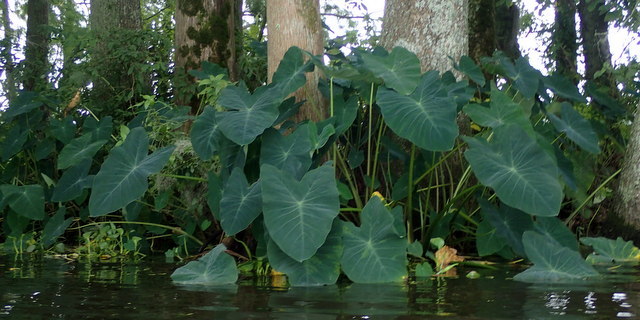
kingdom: Plantae
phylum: Tracheophyta
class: Liliopsida
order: Alismatales
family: Araceae
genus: Colocasia
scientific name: Colocasia esculenta
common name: Taro
